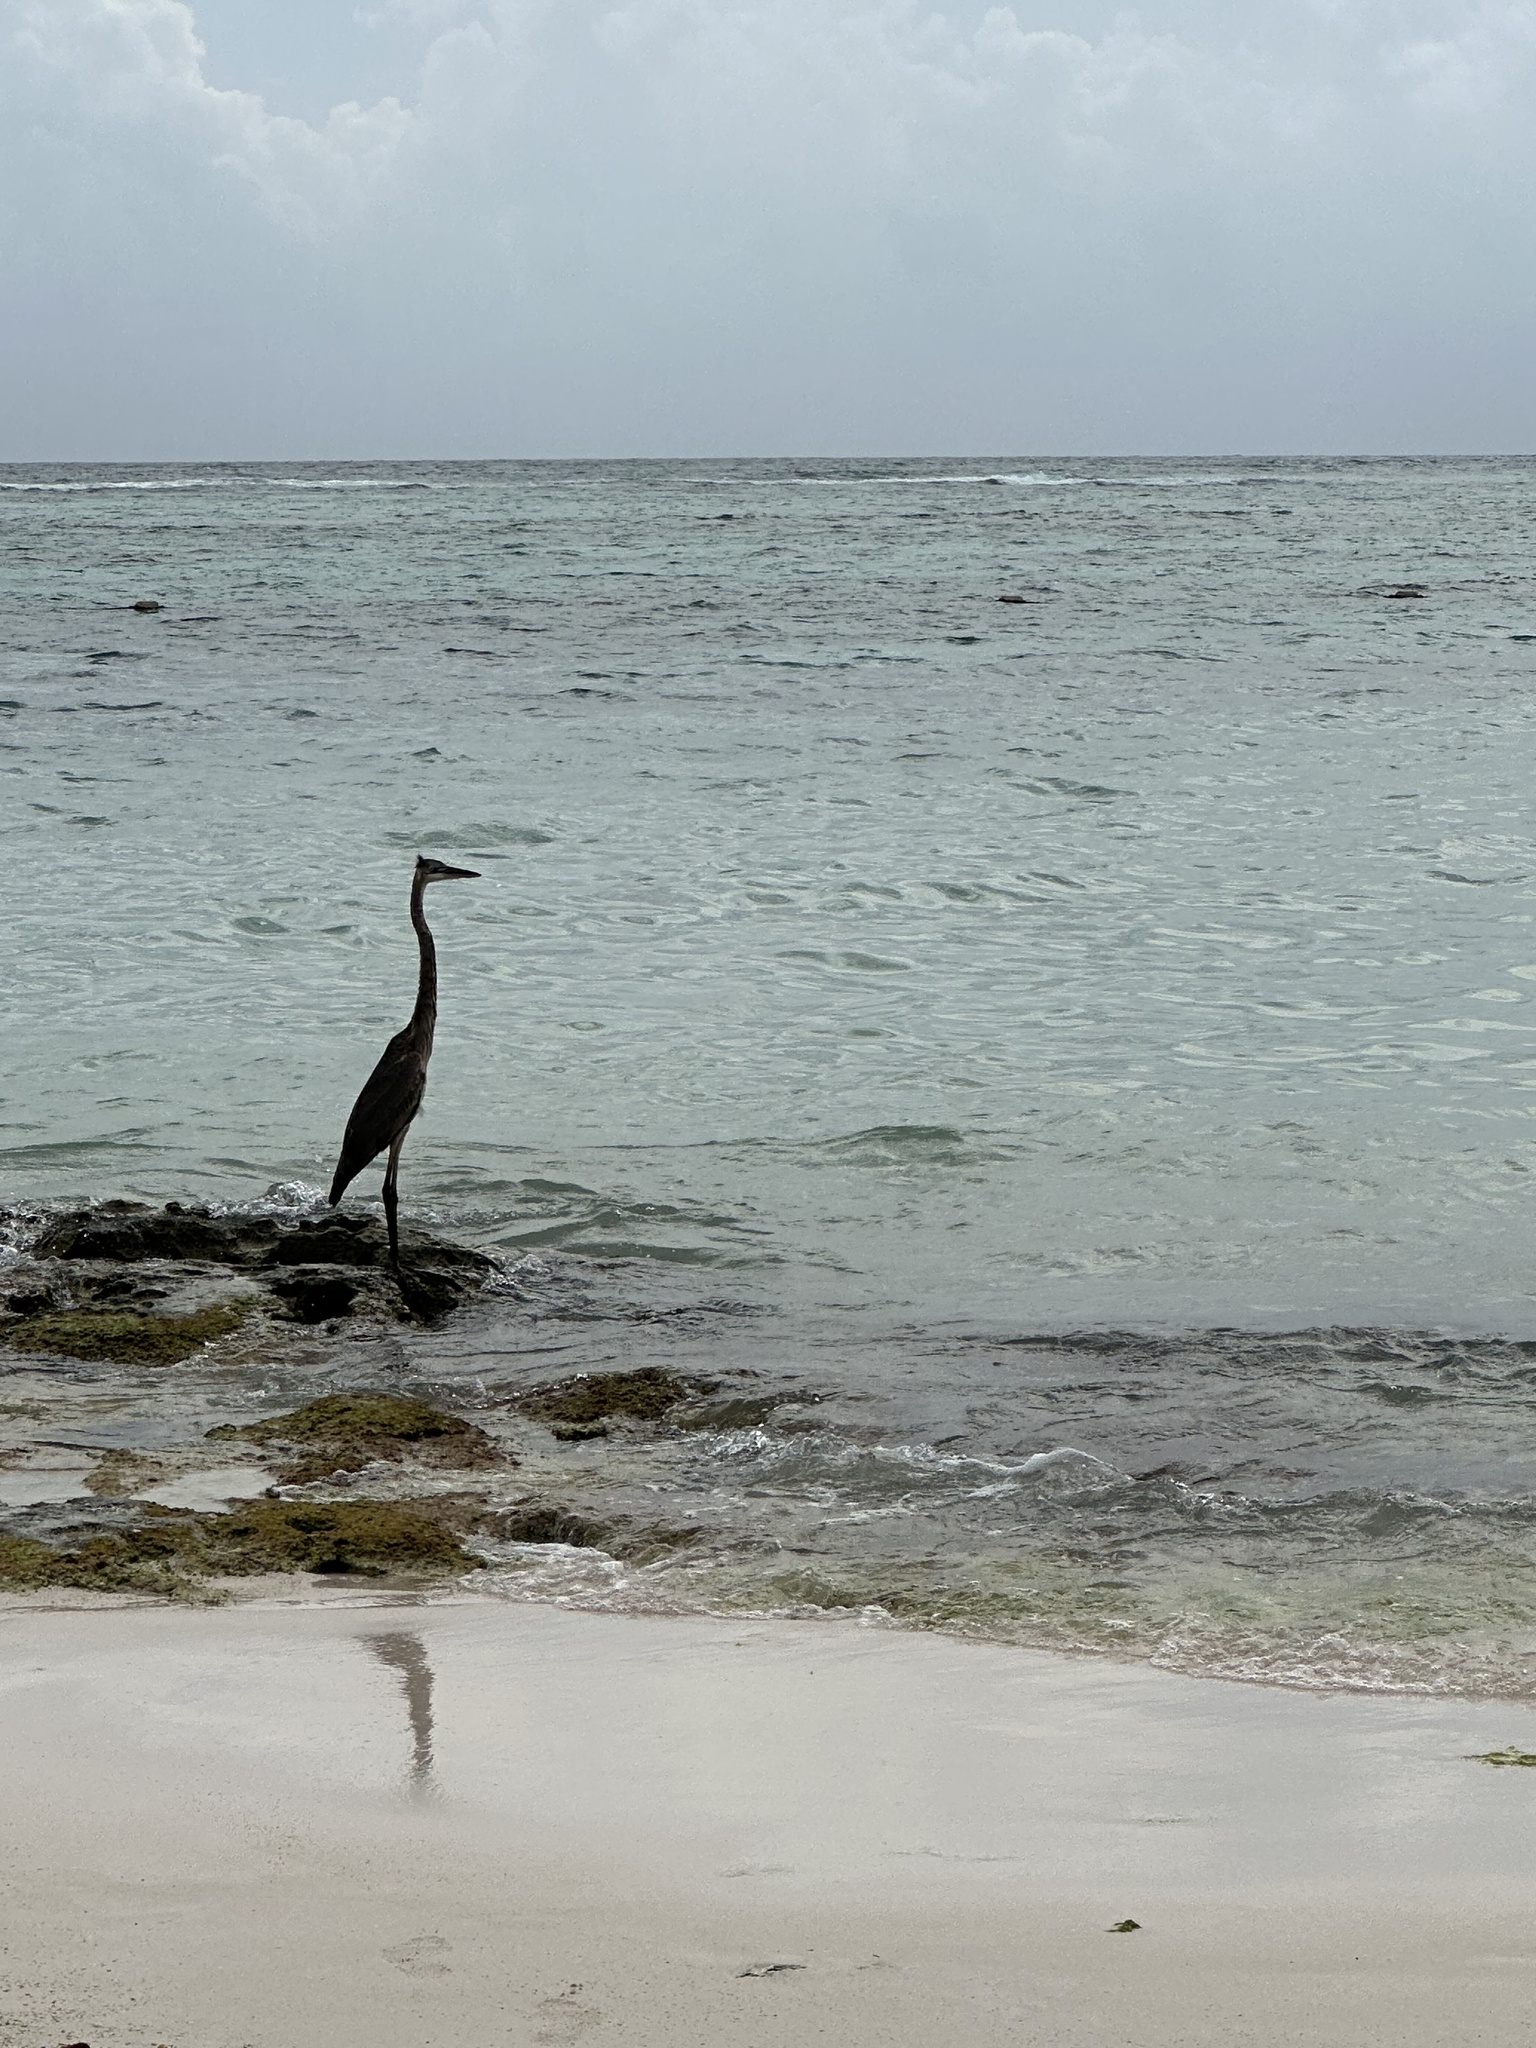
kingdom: Animalia
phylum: Chordata
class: Aves
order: Pelecaniformes
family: Ardeidae
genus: Ardea
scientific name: Ardea herodias
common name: Great blue heron
